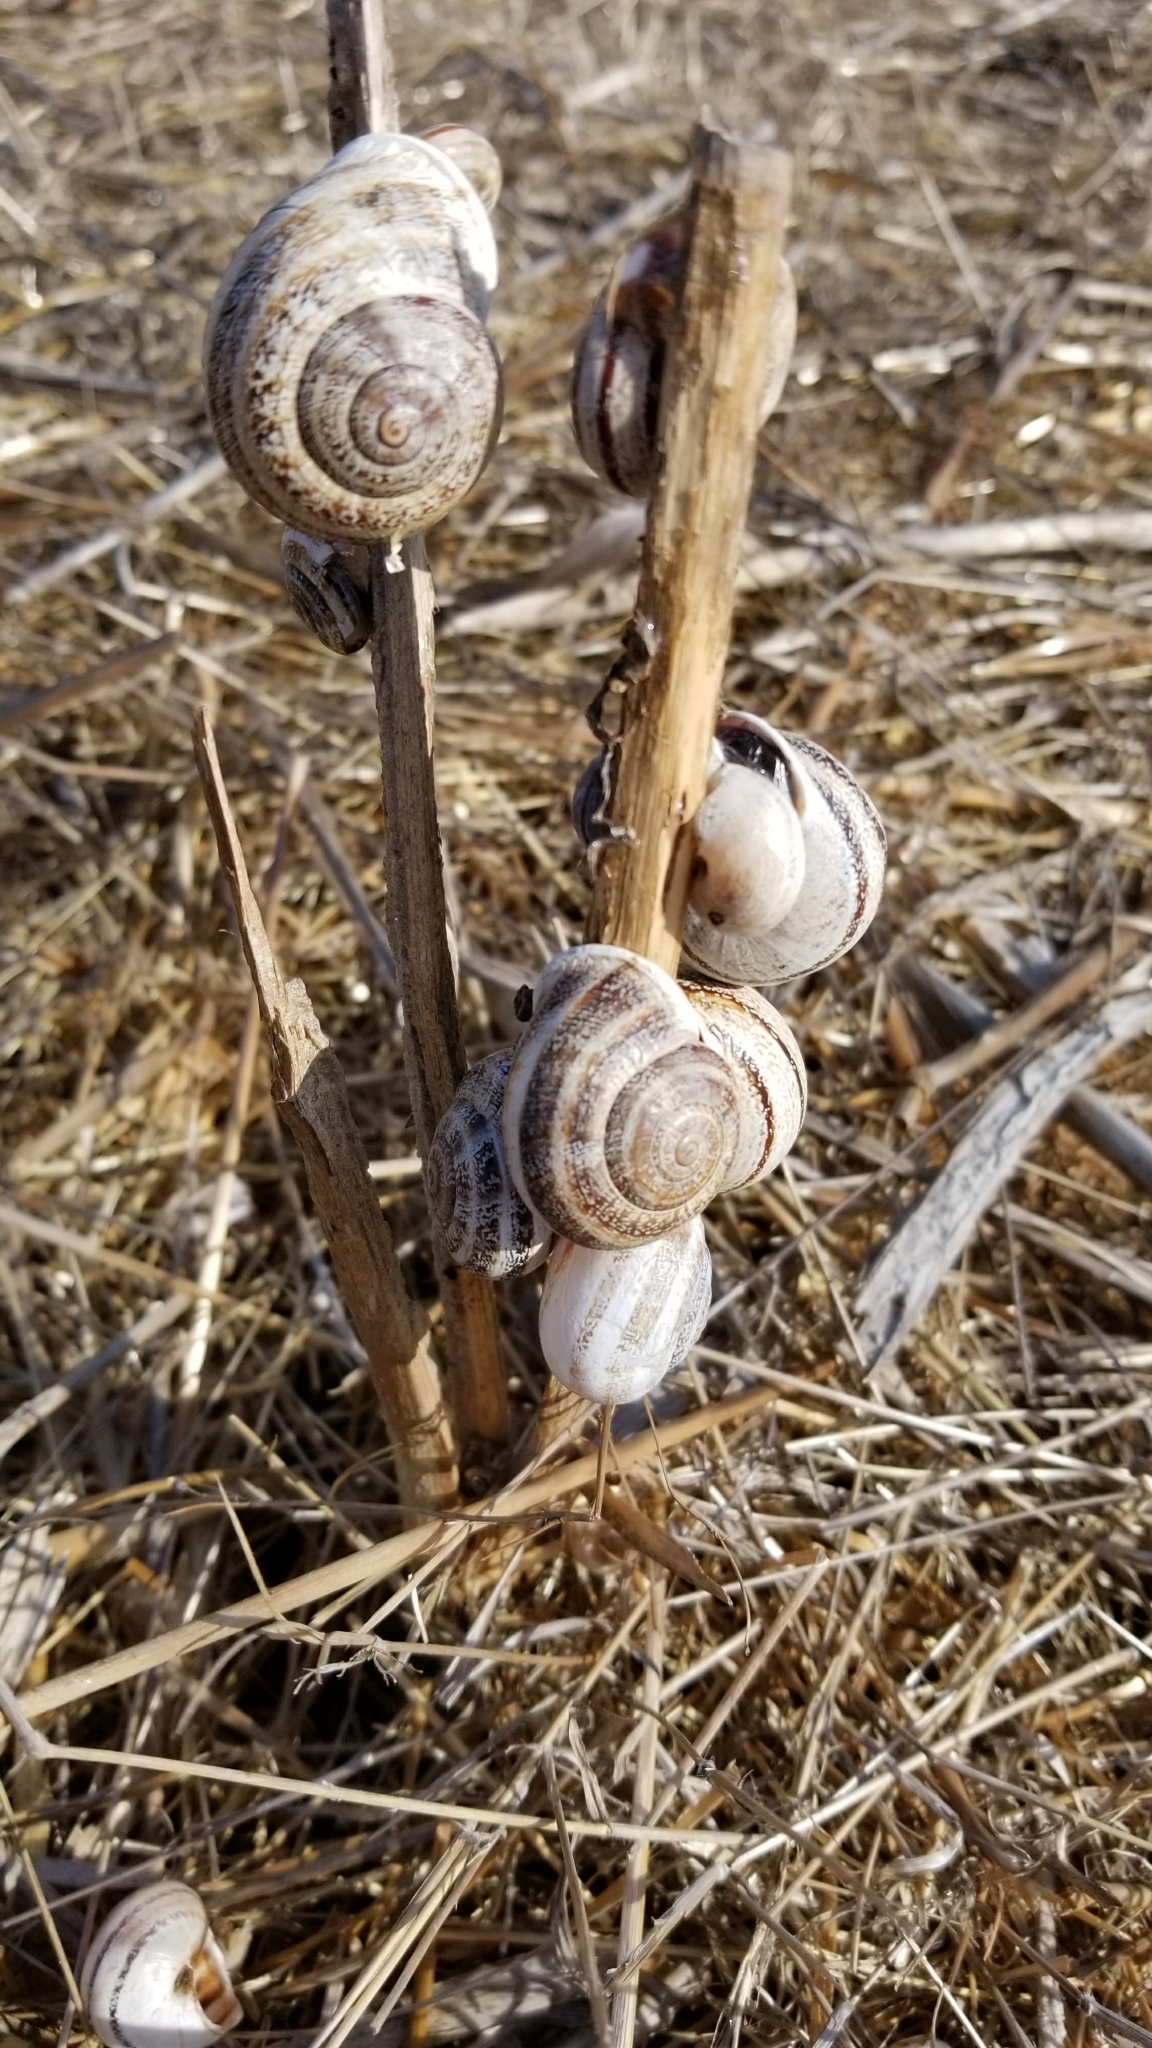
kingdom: Animalia
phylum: Mollusca
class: Gastropoda
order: Stylommatophora
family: Helicidae
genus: Otala
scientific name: Otala lactea
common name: Milk snail
